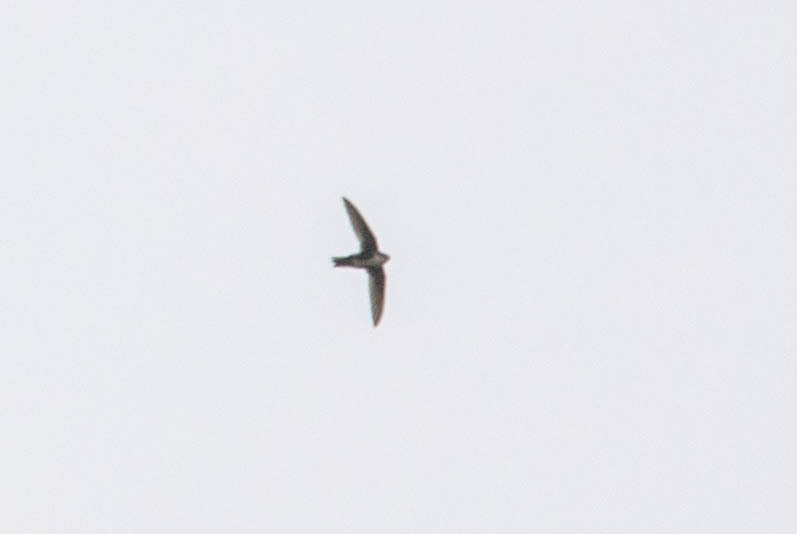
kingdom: Animalia
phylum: Chordata
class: Aves
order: Apodiformes
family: Apodidae
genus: Aeronautes
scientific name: Aeronautes saxatalis
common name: White-throated swift
